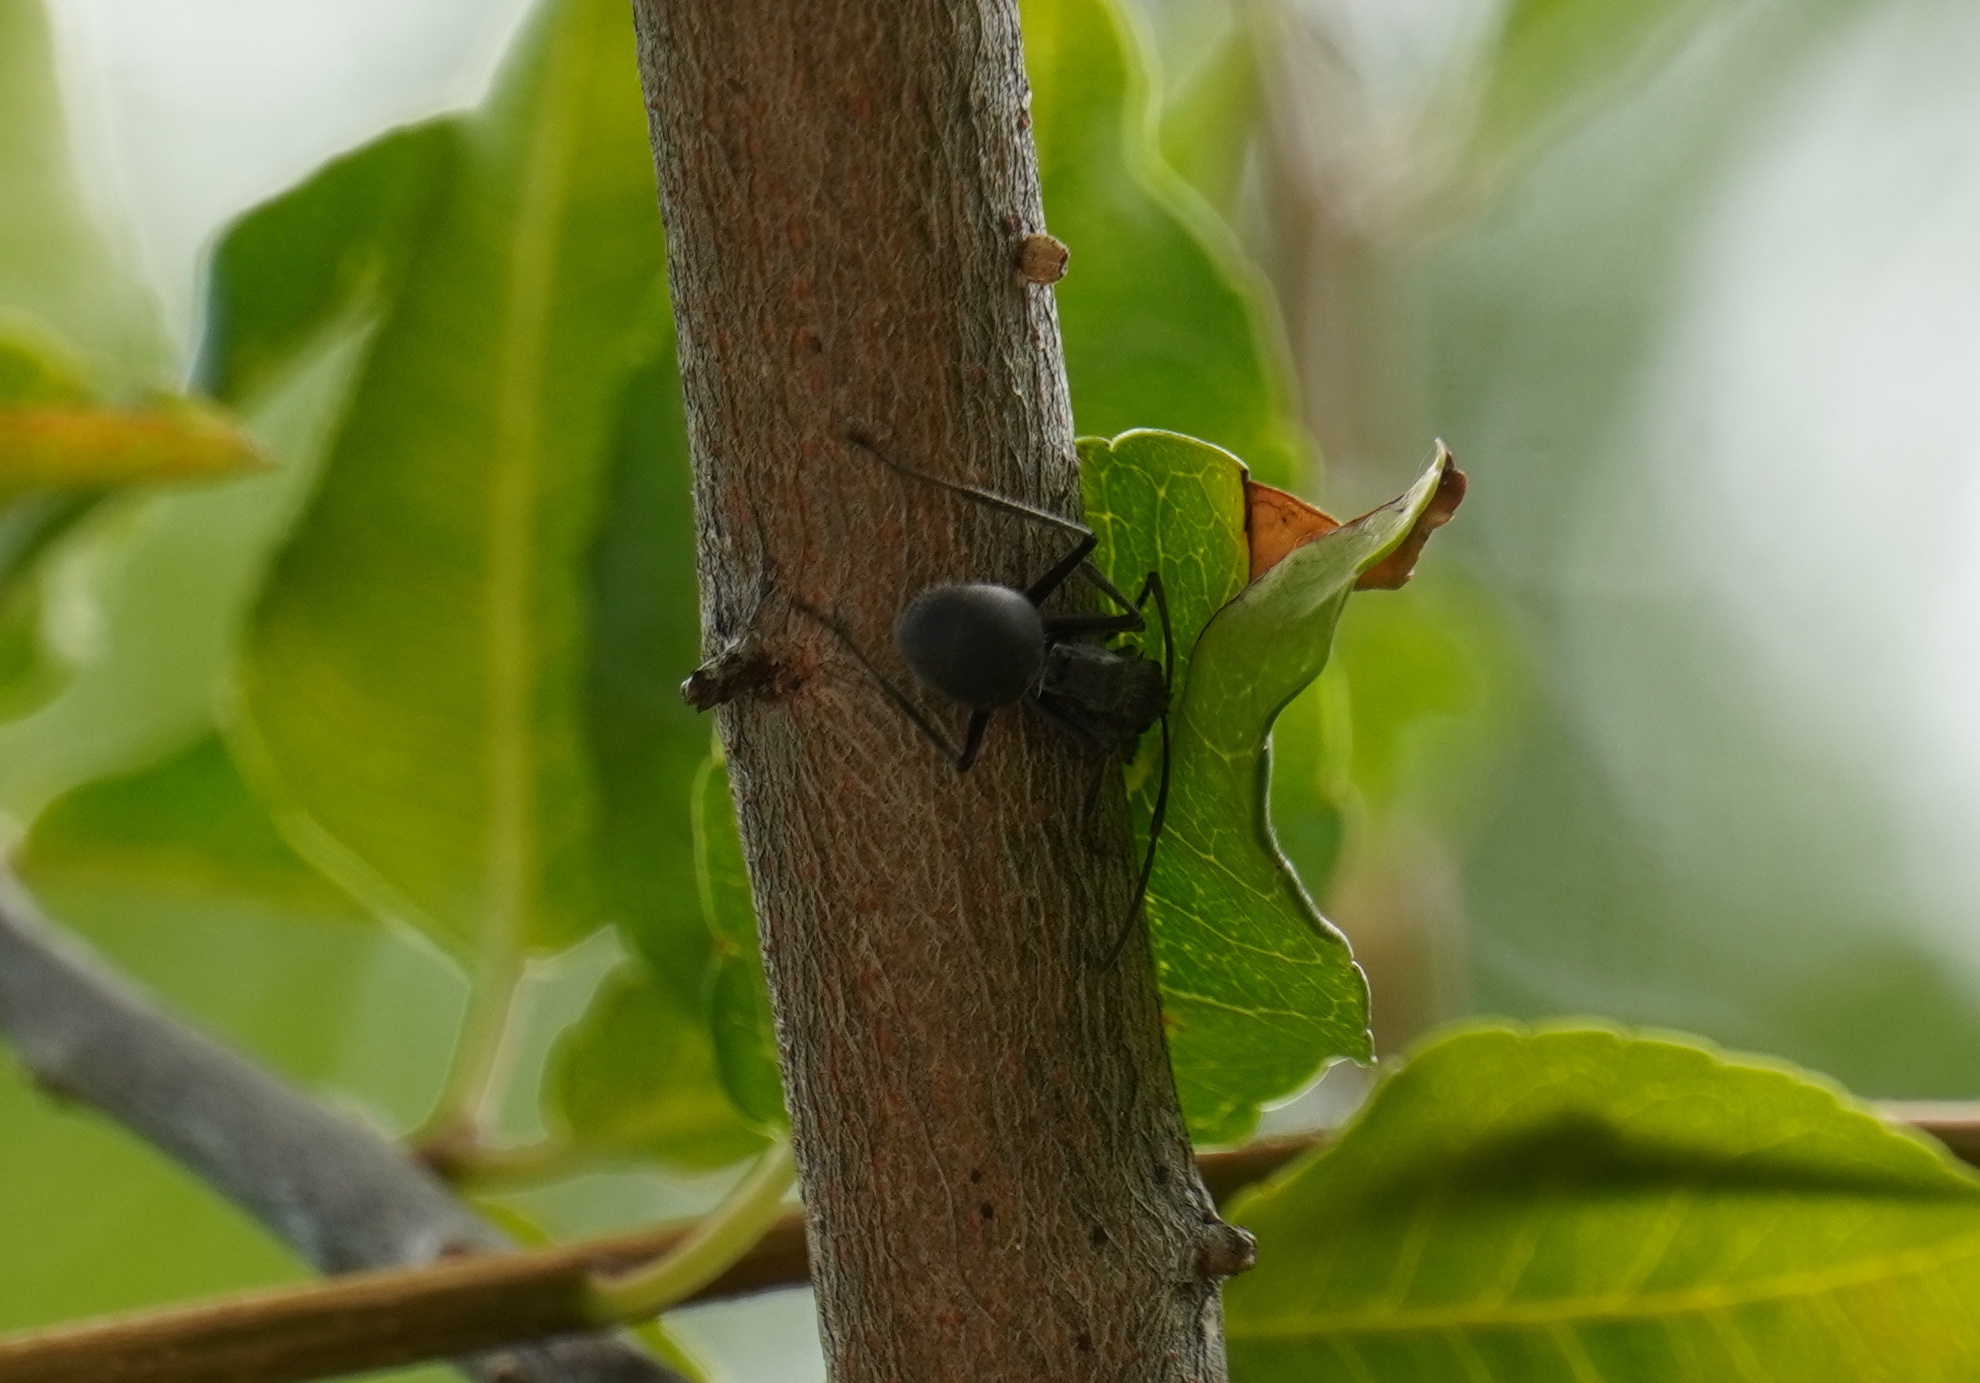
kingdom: Animalia
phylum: Arthropoda
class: Insecta
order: Hymenoptera
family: Formicidae
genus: Polyrhachis
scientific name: Polyrhachis schistacea
